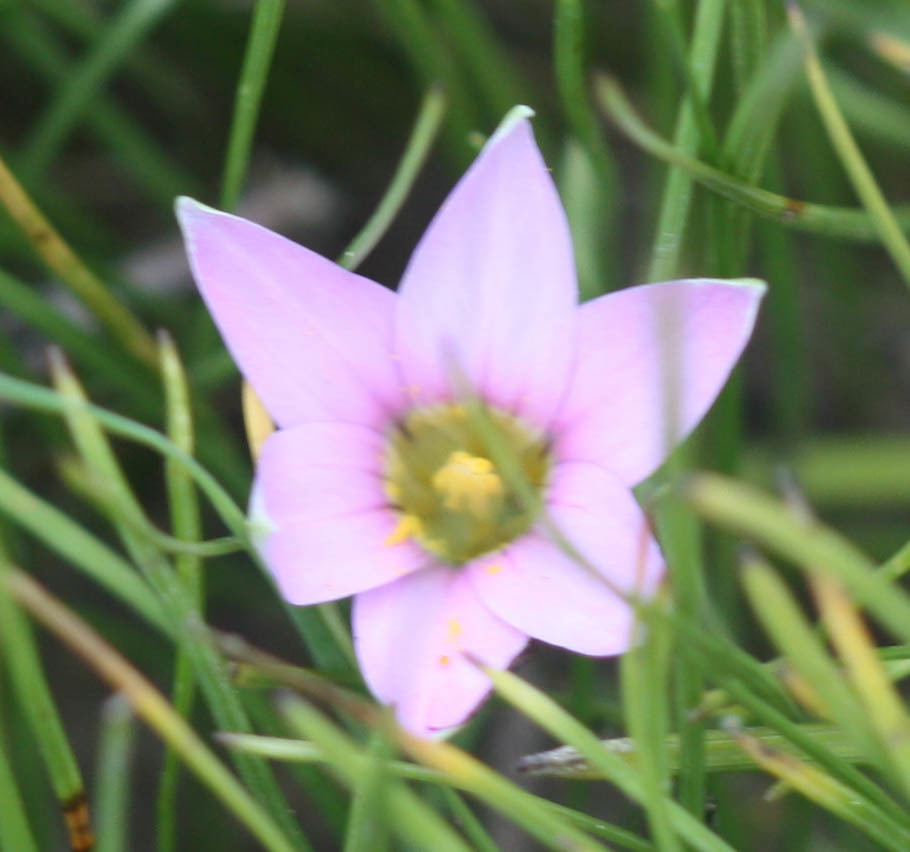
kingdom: Plantae
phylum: Tracheophyta
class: Liliopsida
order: Asparagales
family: Iridaceae
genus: Romulea
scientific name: Romulea rosea
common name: Oniongrass
